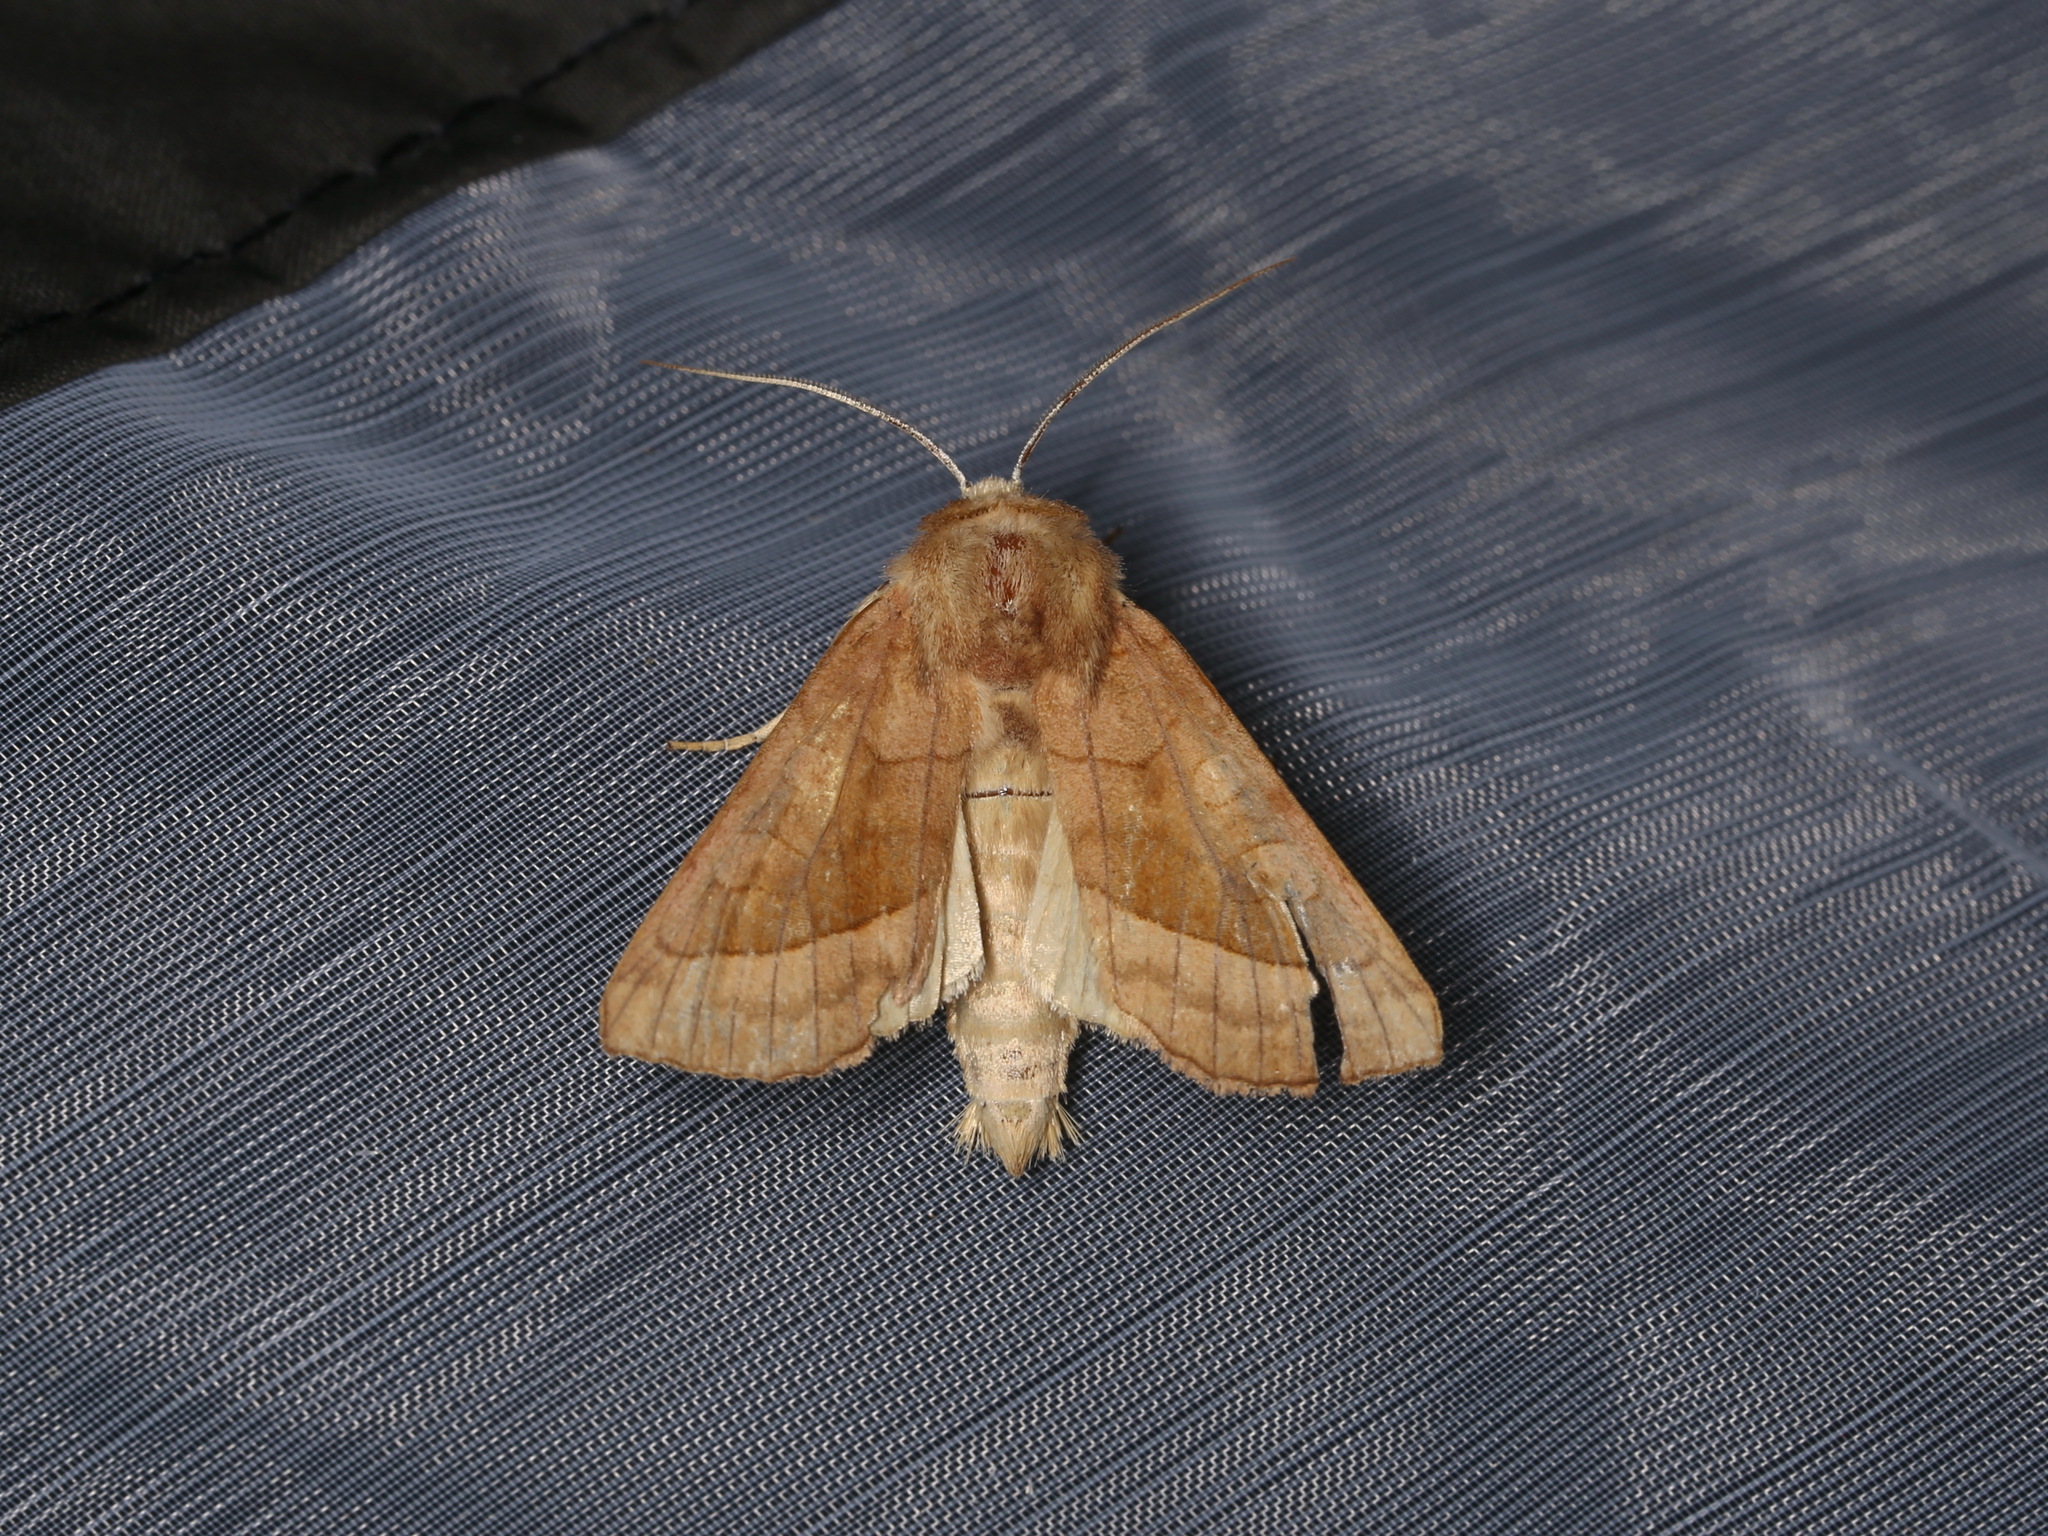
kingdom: Animalia
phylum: Arthropoda
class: Insecta
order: Lepidoptera
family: Noctuidae
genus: Hydraecia
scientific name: Hydraecia micacea
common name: Rosy rustic
